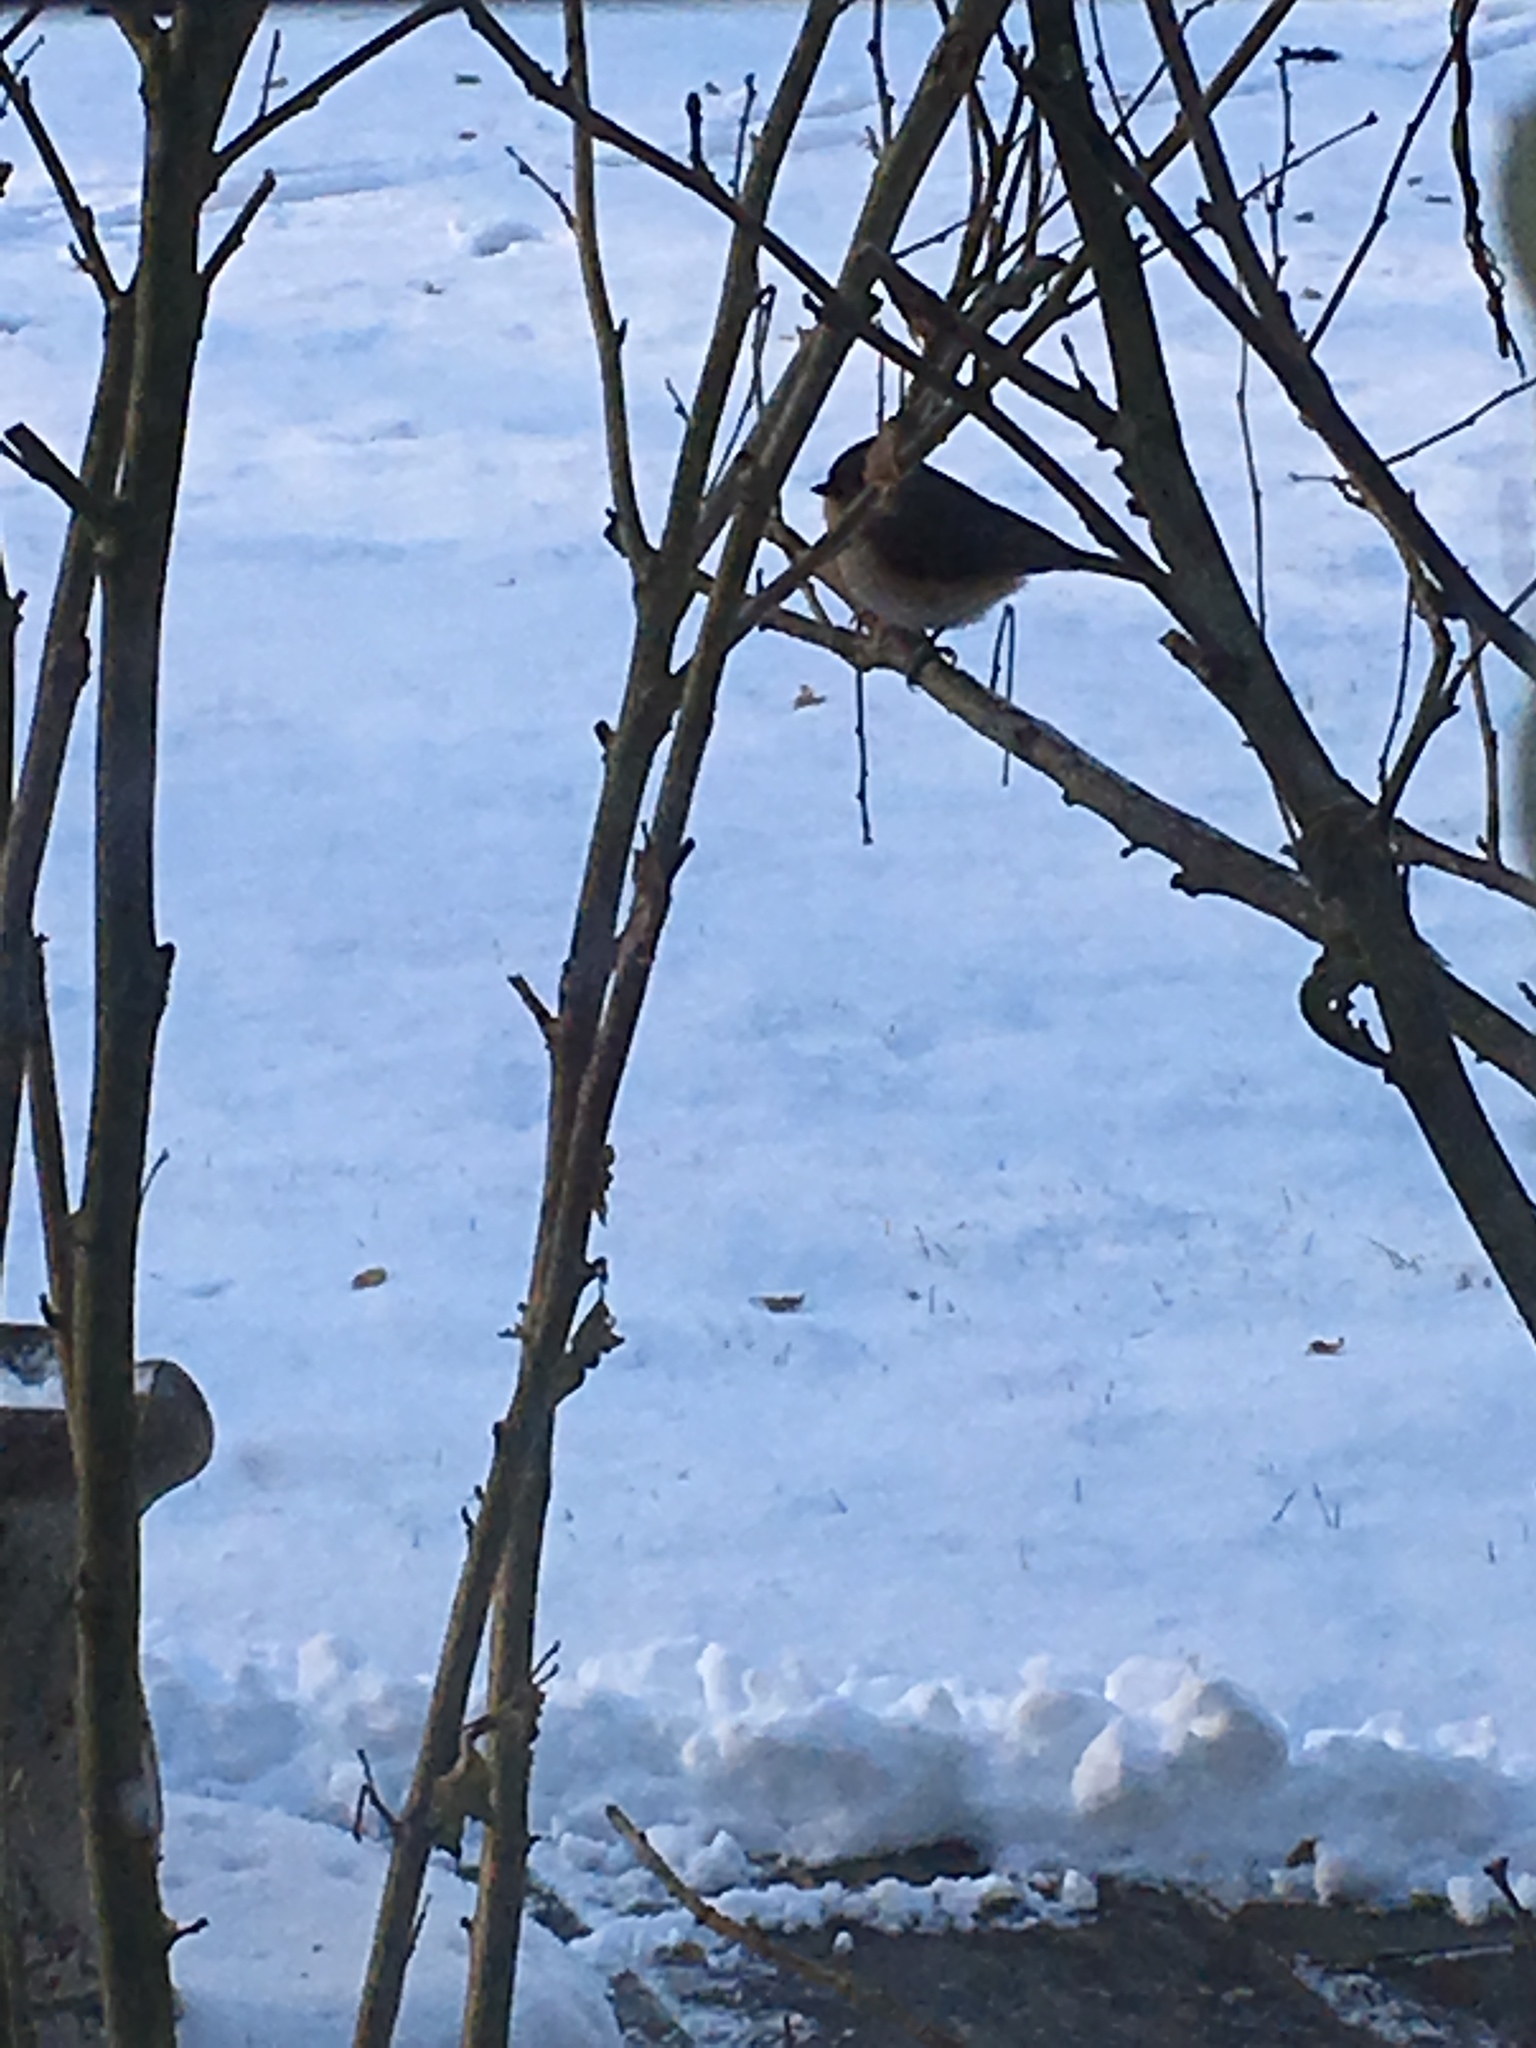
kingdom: Animalia
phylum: Chordata
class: Aves
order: Passeriformes
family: Paridae
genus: Baeolophus
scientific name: Baeolophus bicolor
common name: Tufted titmouse
